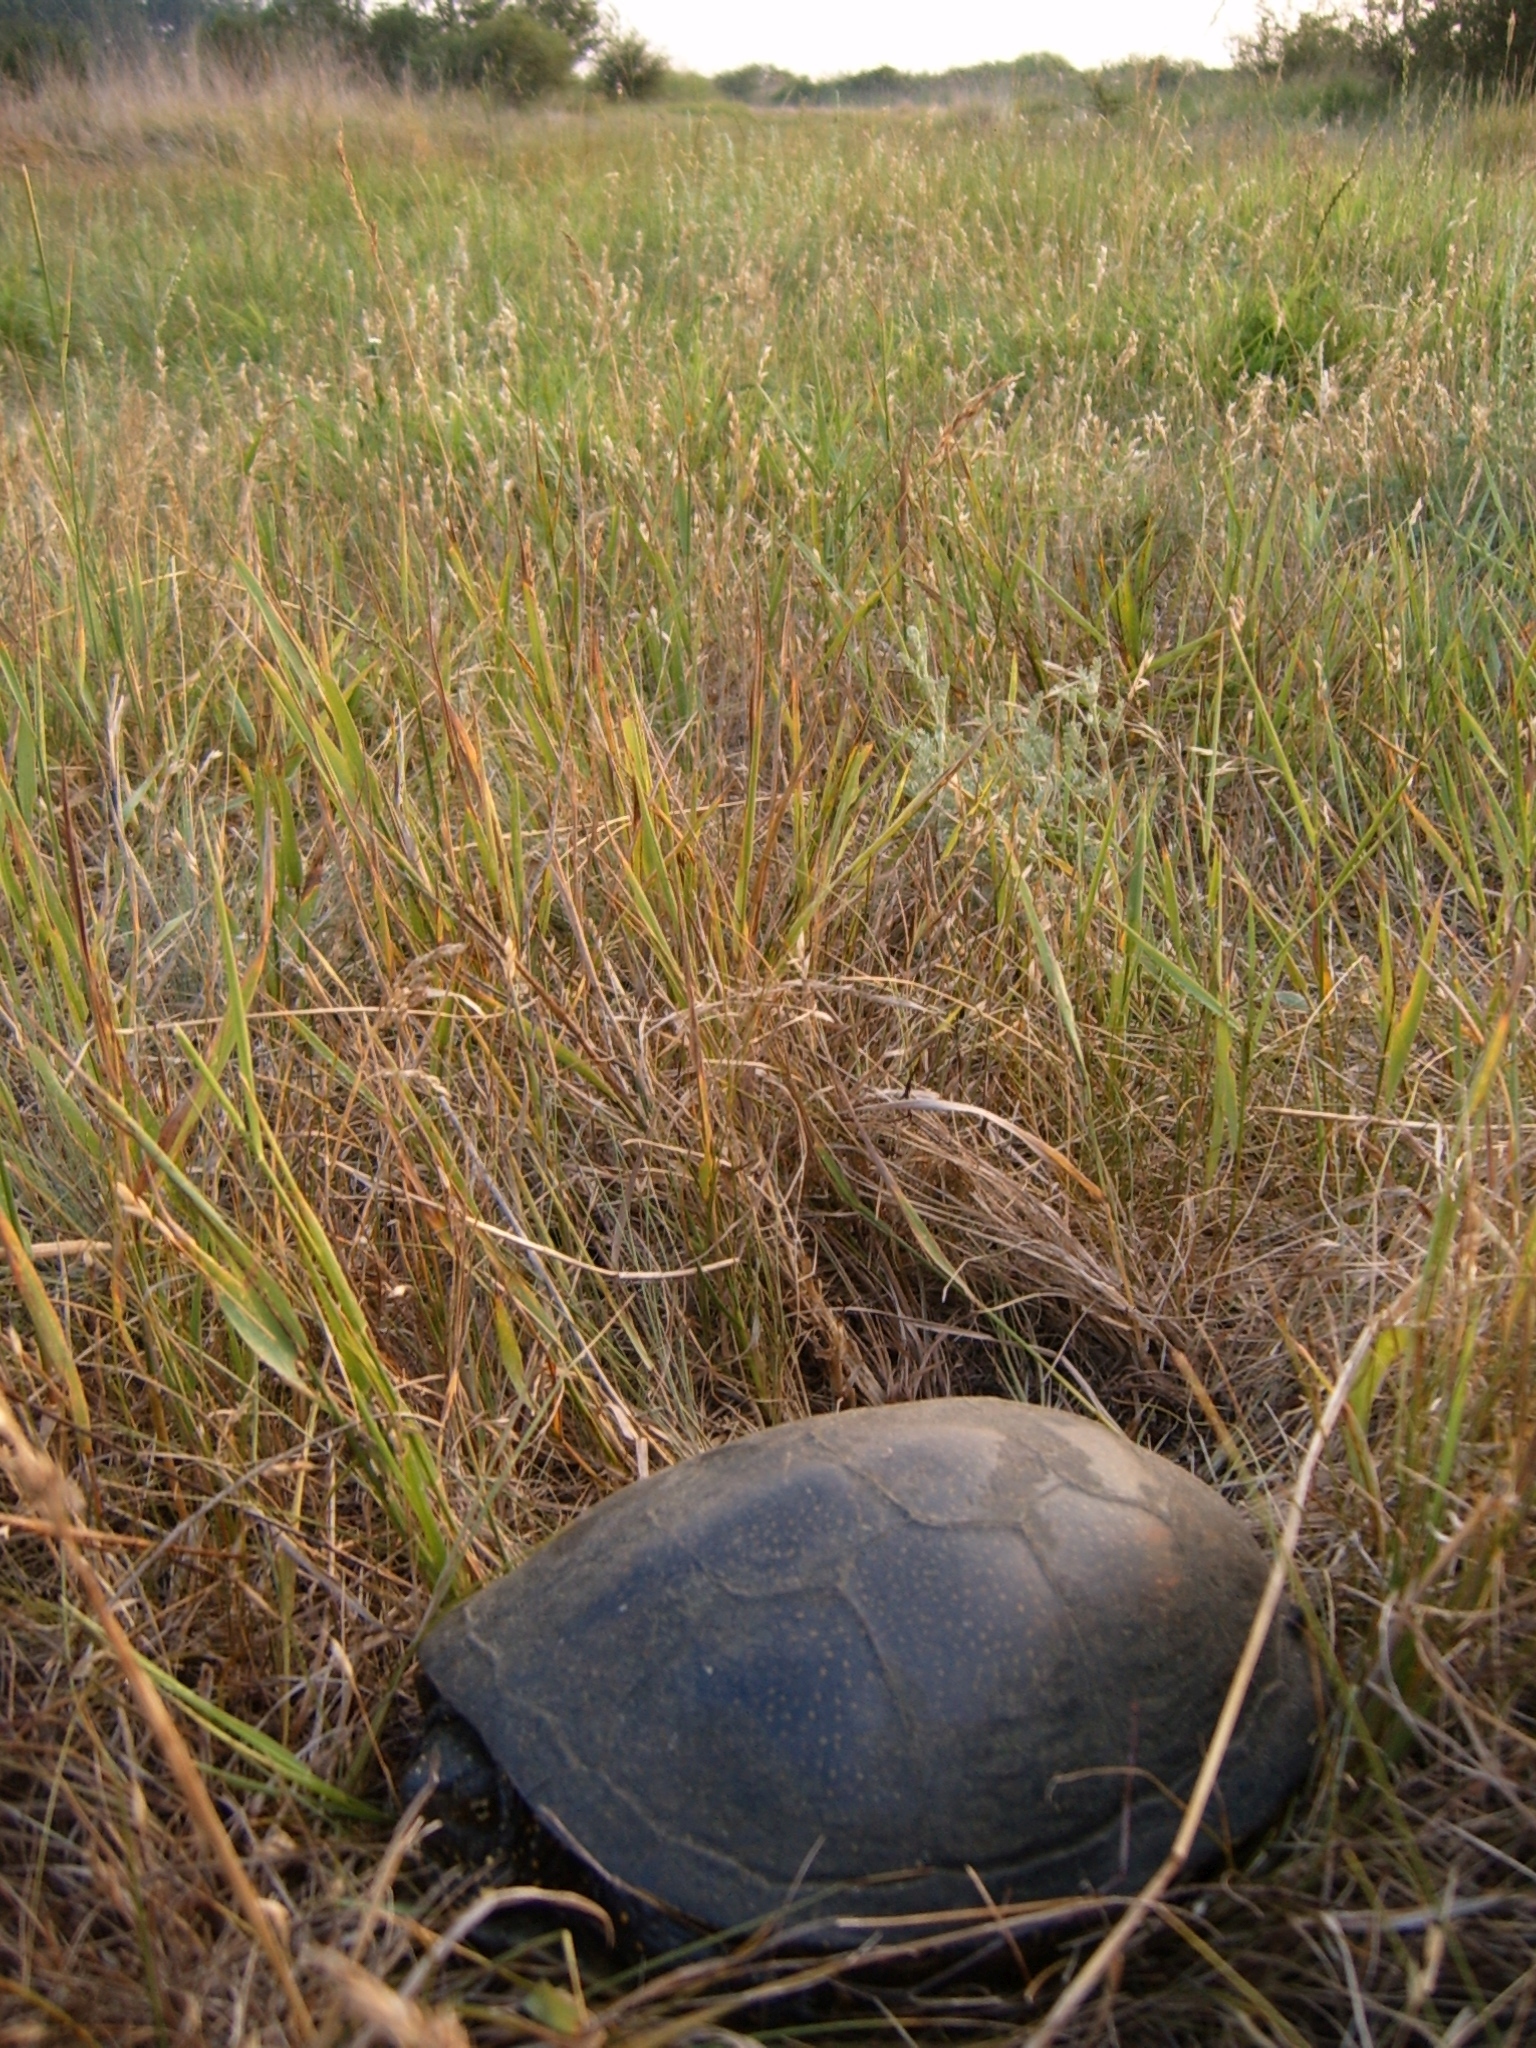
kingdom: Animalia
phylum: Chordata
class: Testudines
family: Emydidae
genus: Emys
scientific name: Emys orbicularis
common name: European pond turtle
